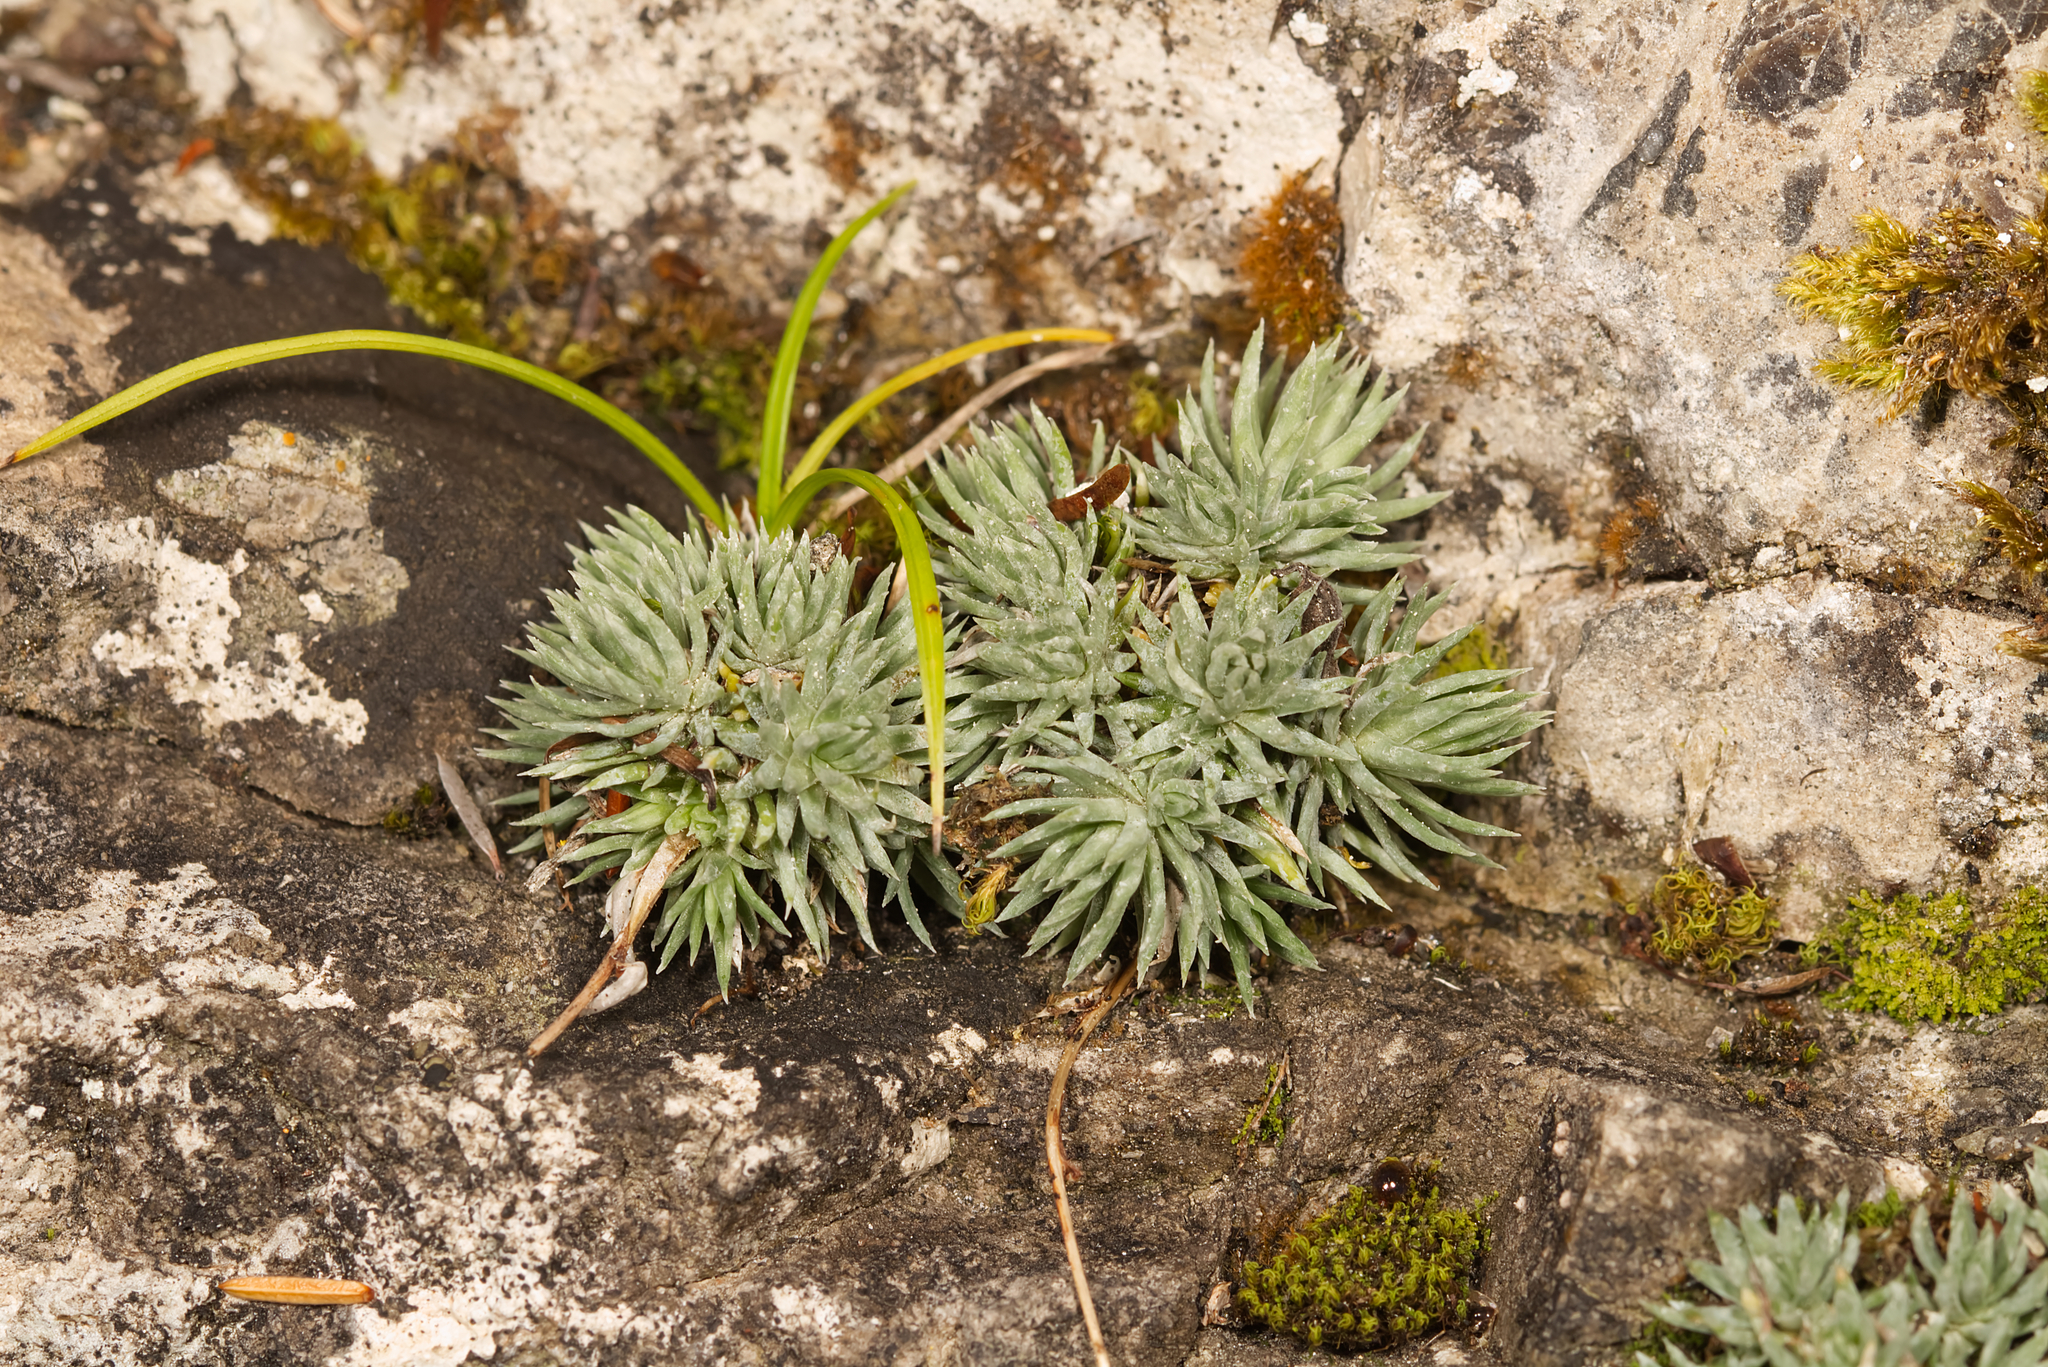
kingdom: Plantae
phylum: Tracheophyta
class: Magnoliopsida
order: Saxifragales
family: Saxifragaceae
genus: Saxifraga
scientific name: Saxifraga burseriana
